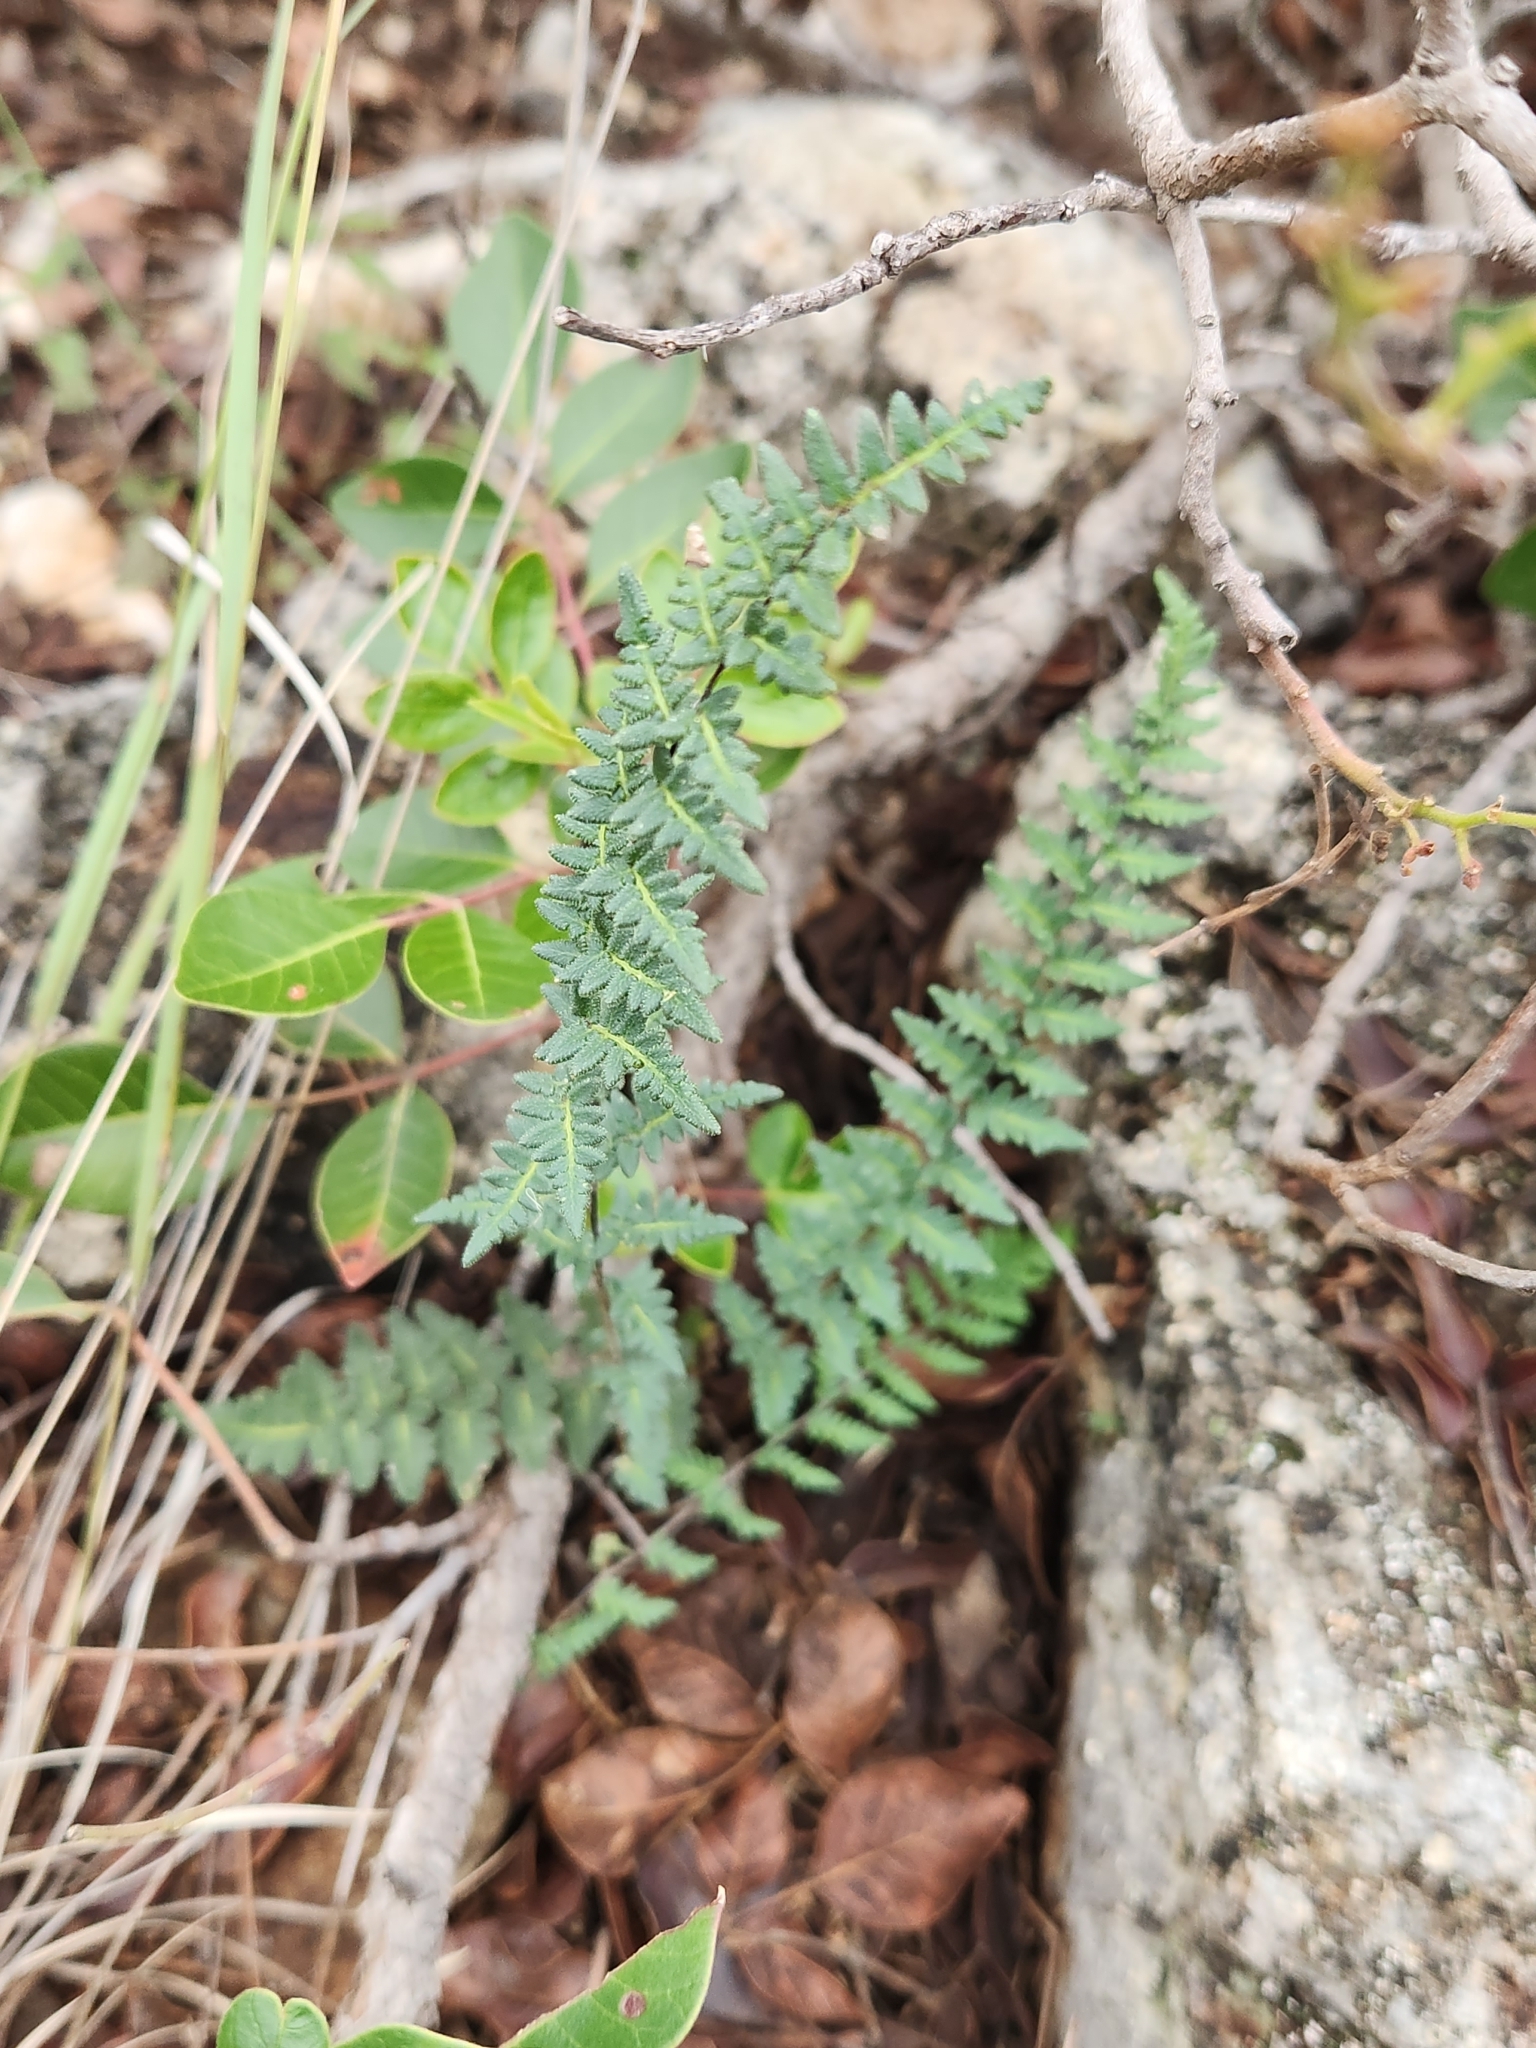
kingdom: Plantae
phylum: Tracheophyta
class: Polypodiopsida
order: Polypodiales
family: Pteridaceae
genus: Myriopteris
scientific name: Myriopteris scabra
